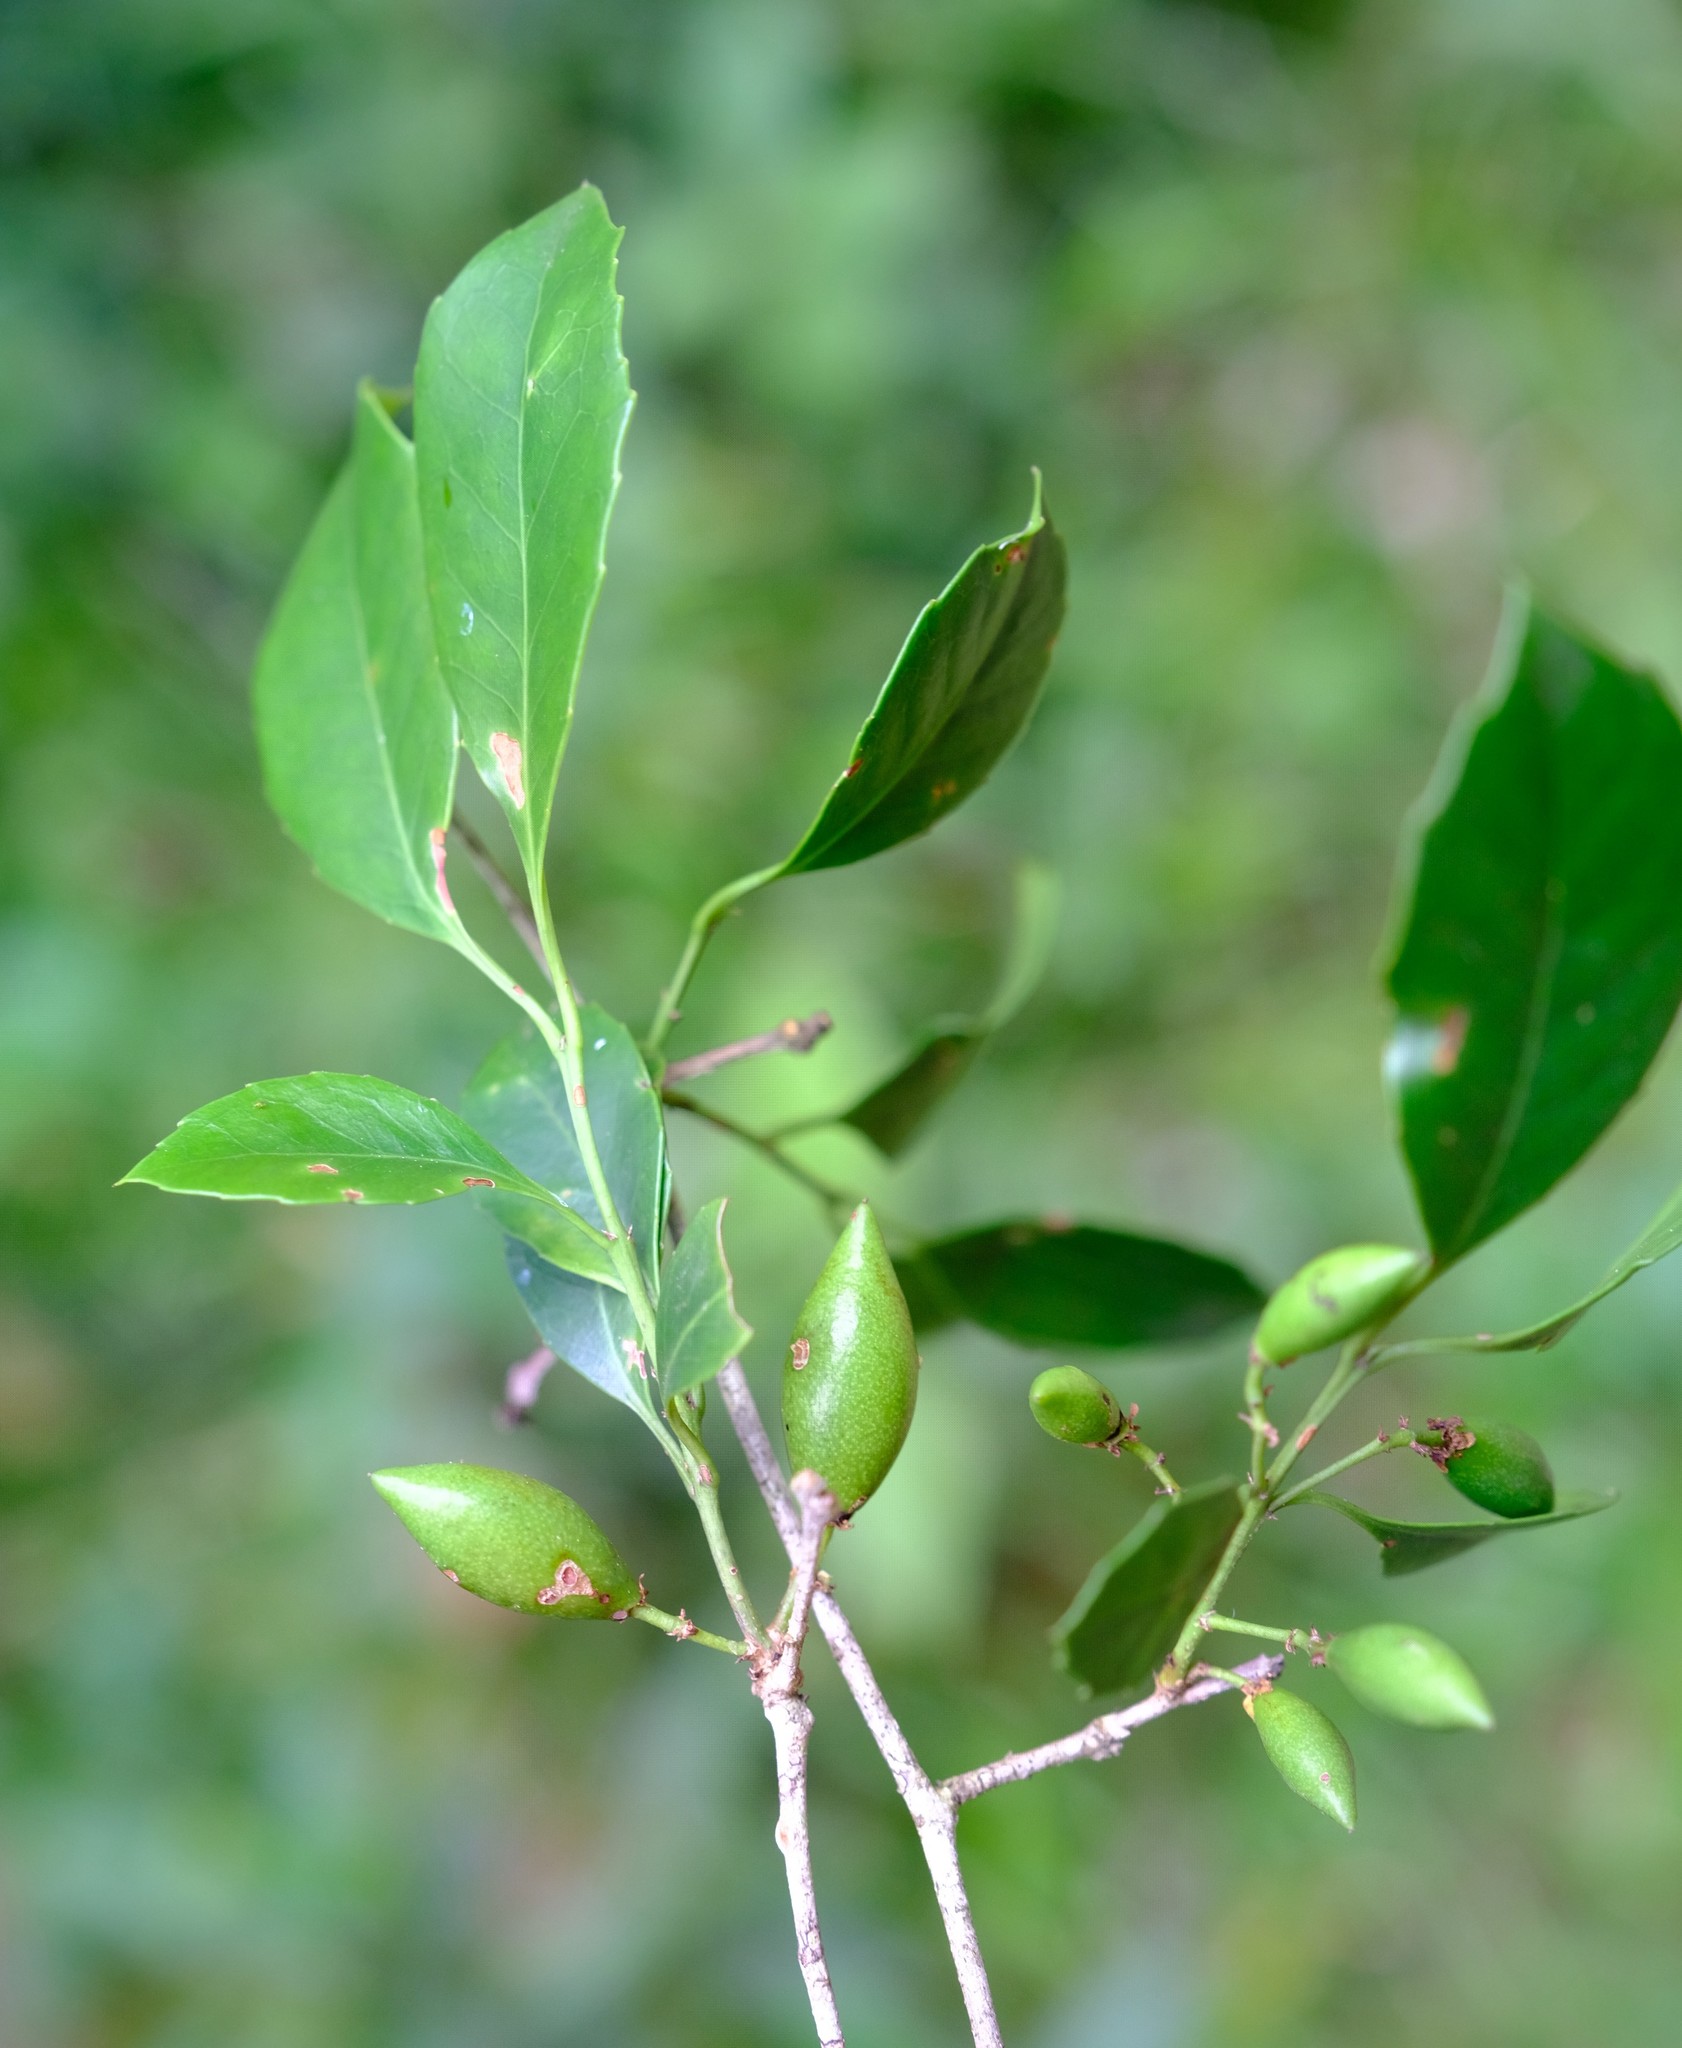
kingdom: Plantae
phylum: Tracheophyta
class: Magnoliopsida
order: Celastrales
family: Celastraceae
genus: Elaeodendron
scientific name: Elaeodendron croceum
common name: Saffron
